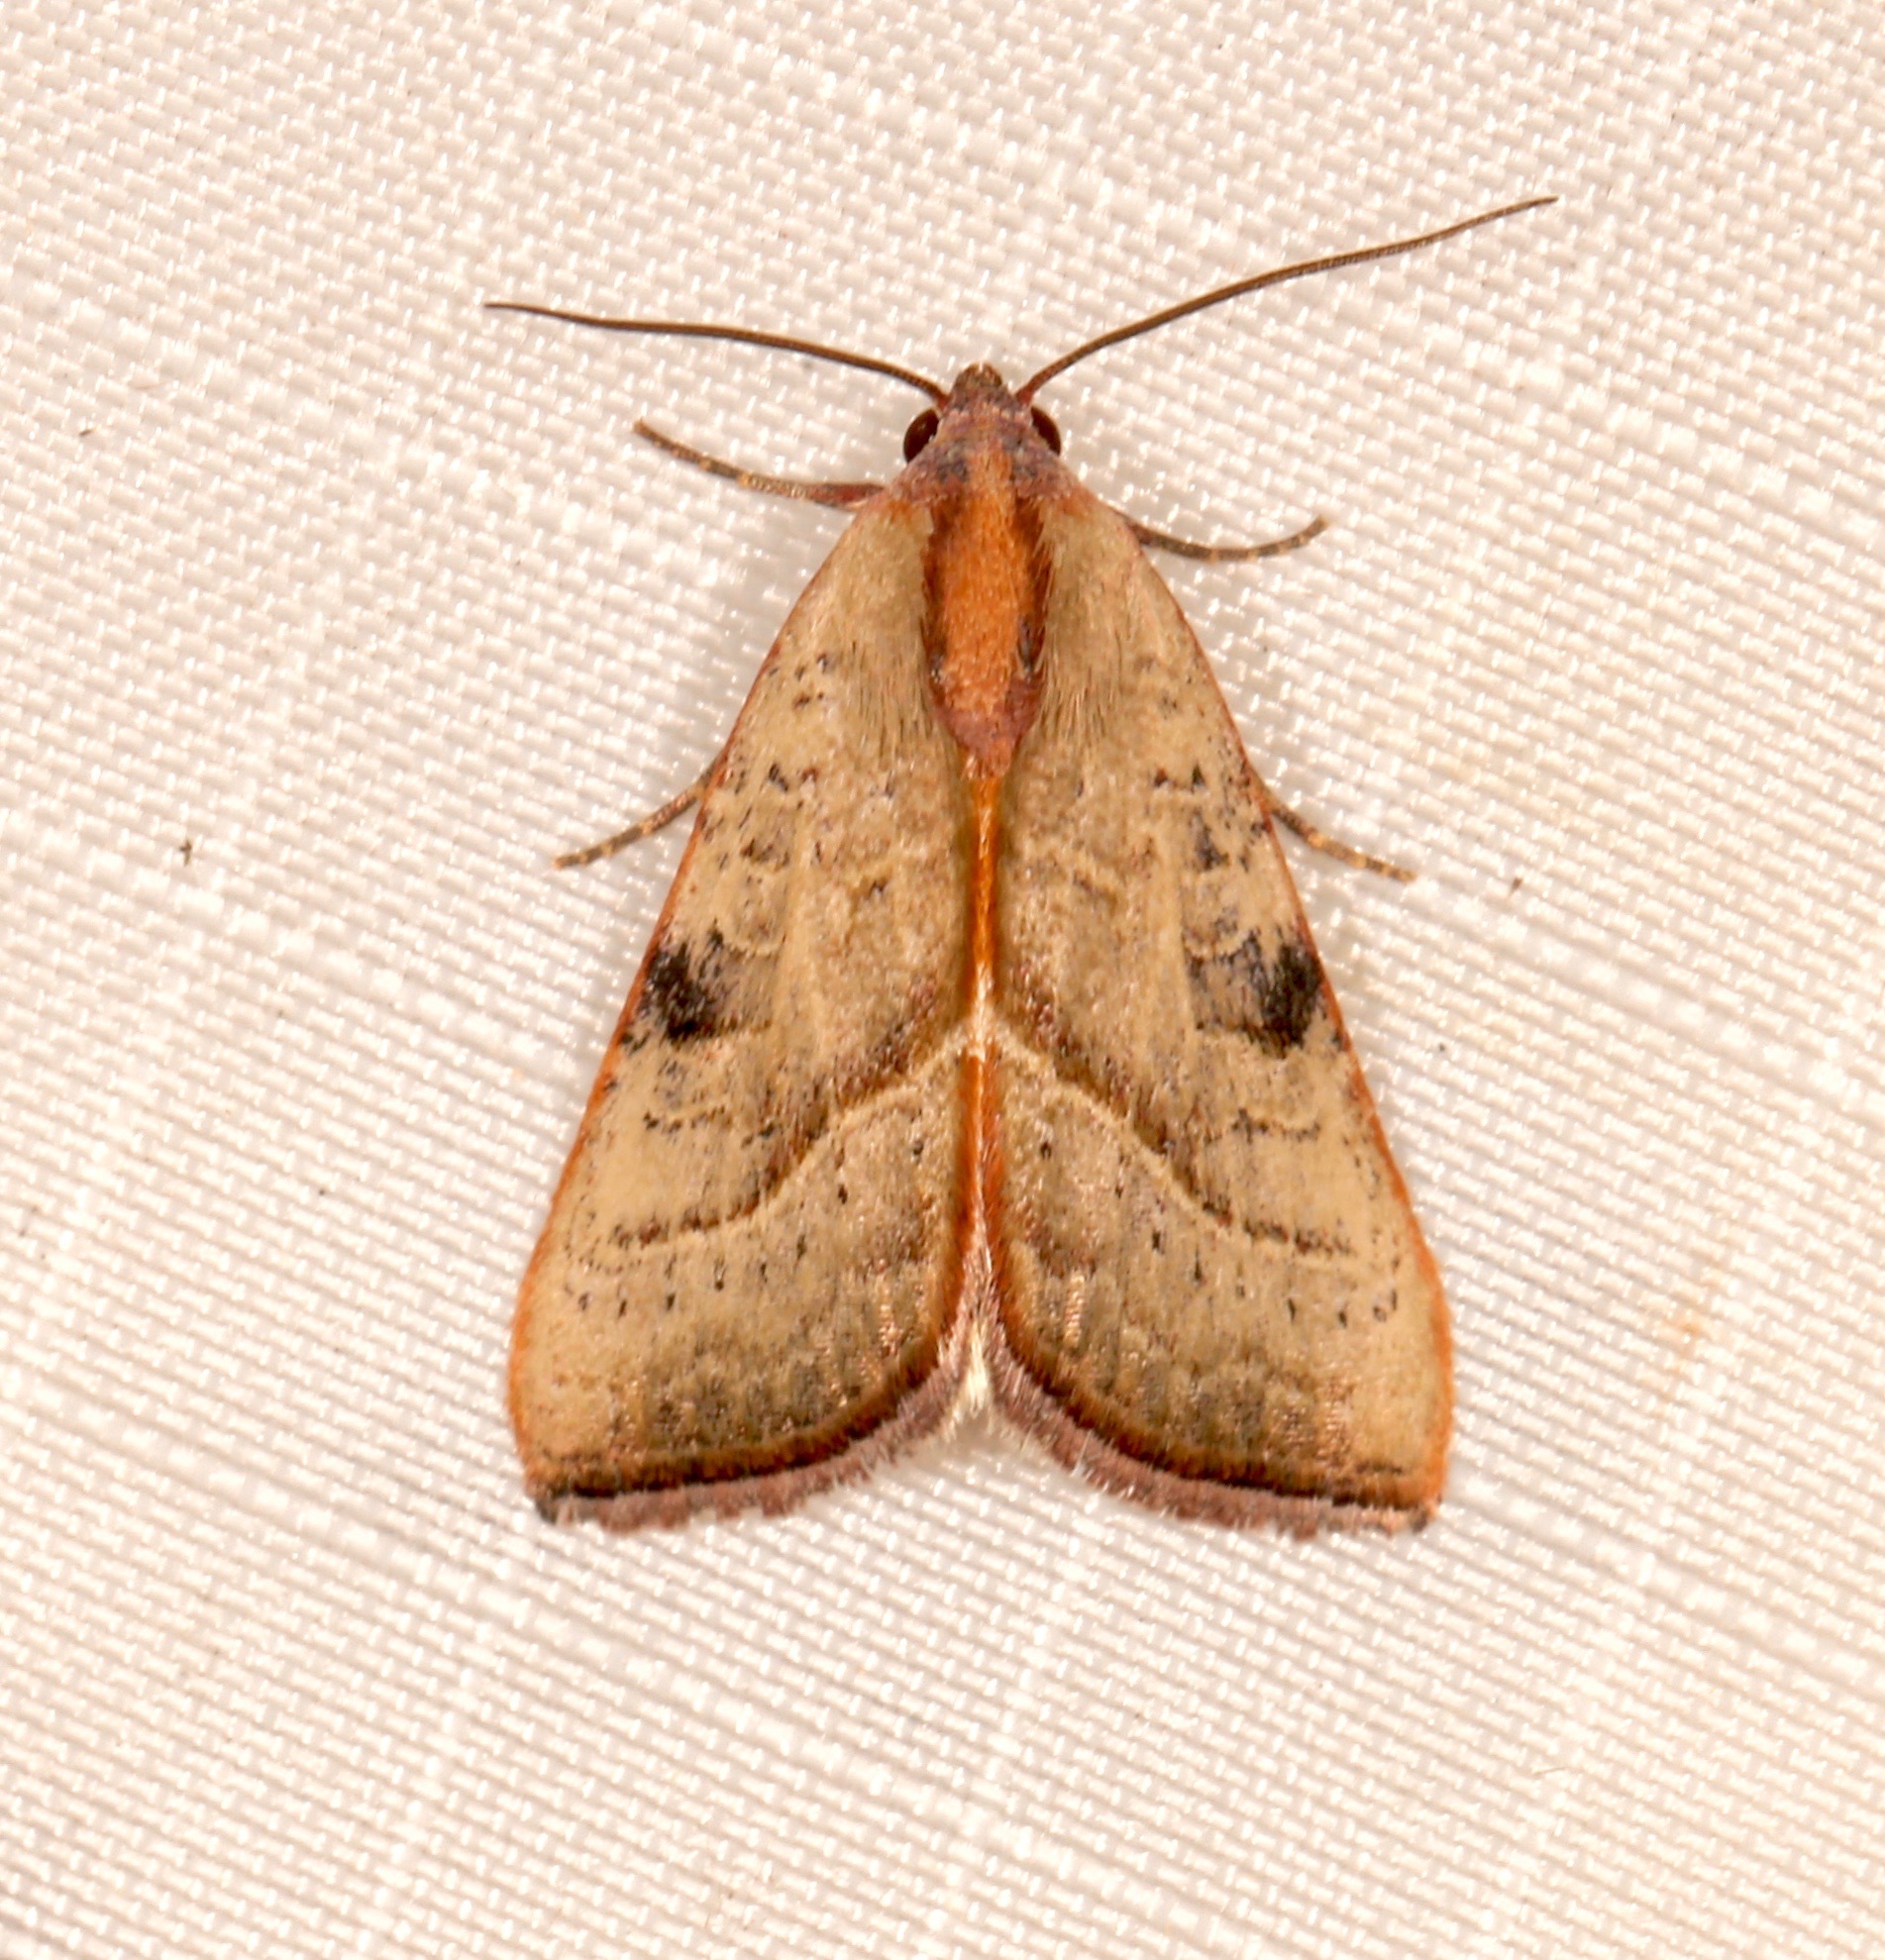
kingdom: Animalia
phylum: Arthropoda
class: Insecta
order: Lepidoptera
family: Noctuidae
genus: Galgula
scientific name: Galgula partita
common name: Wedgeling
